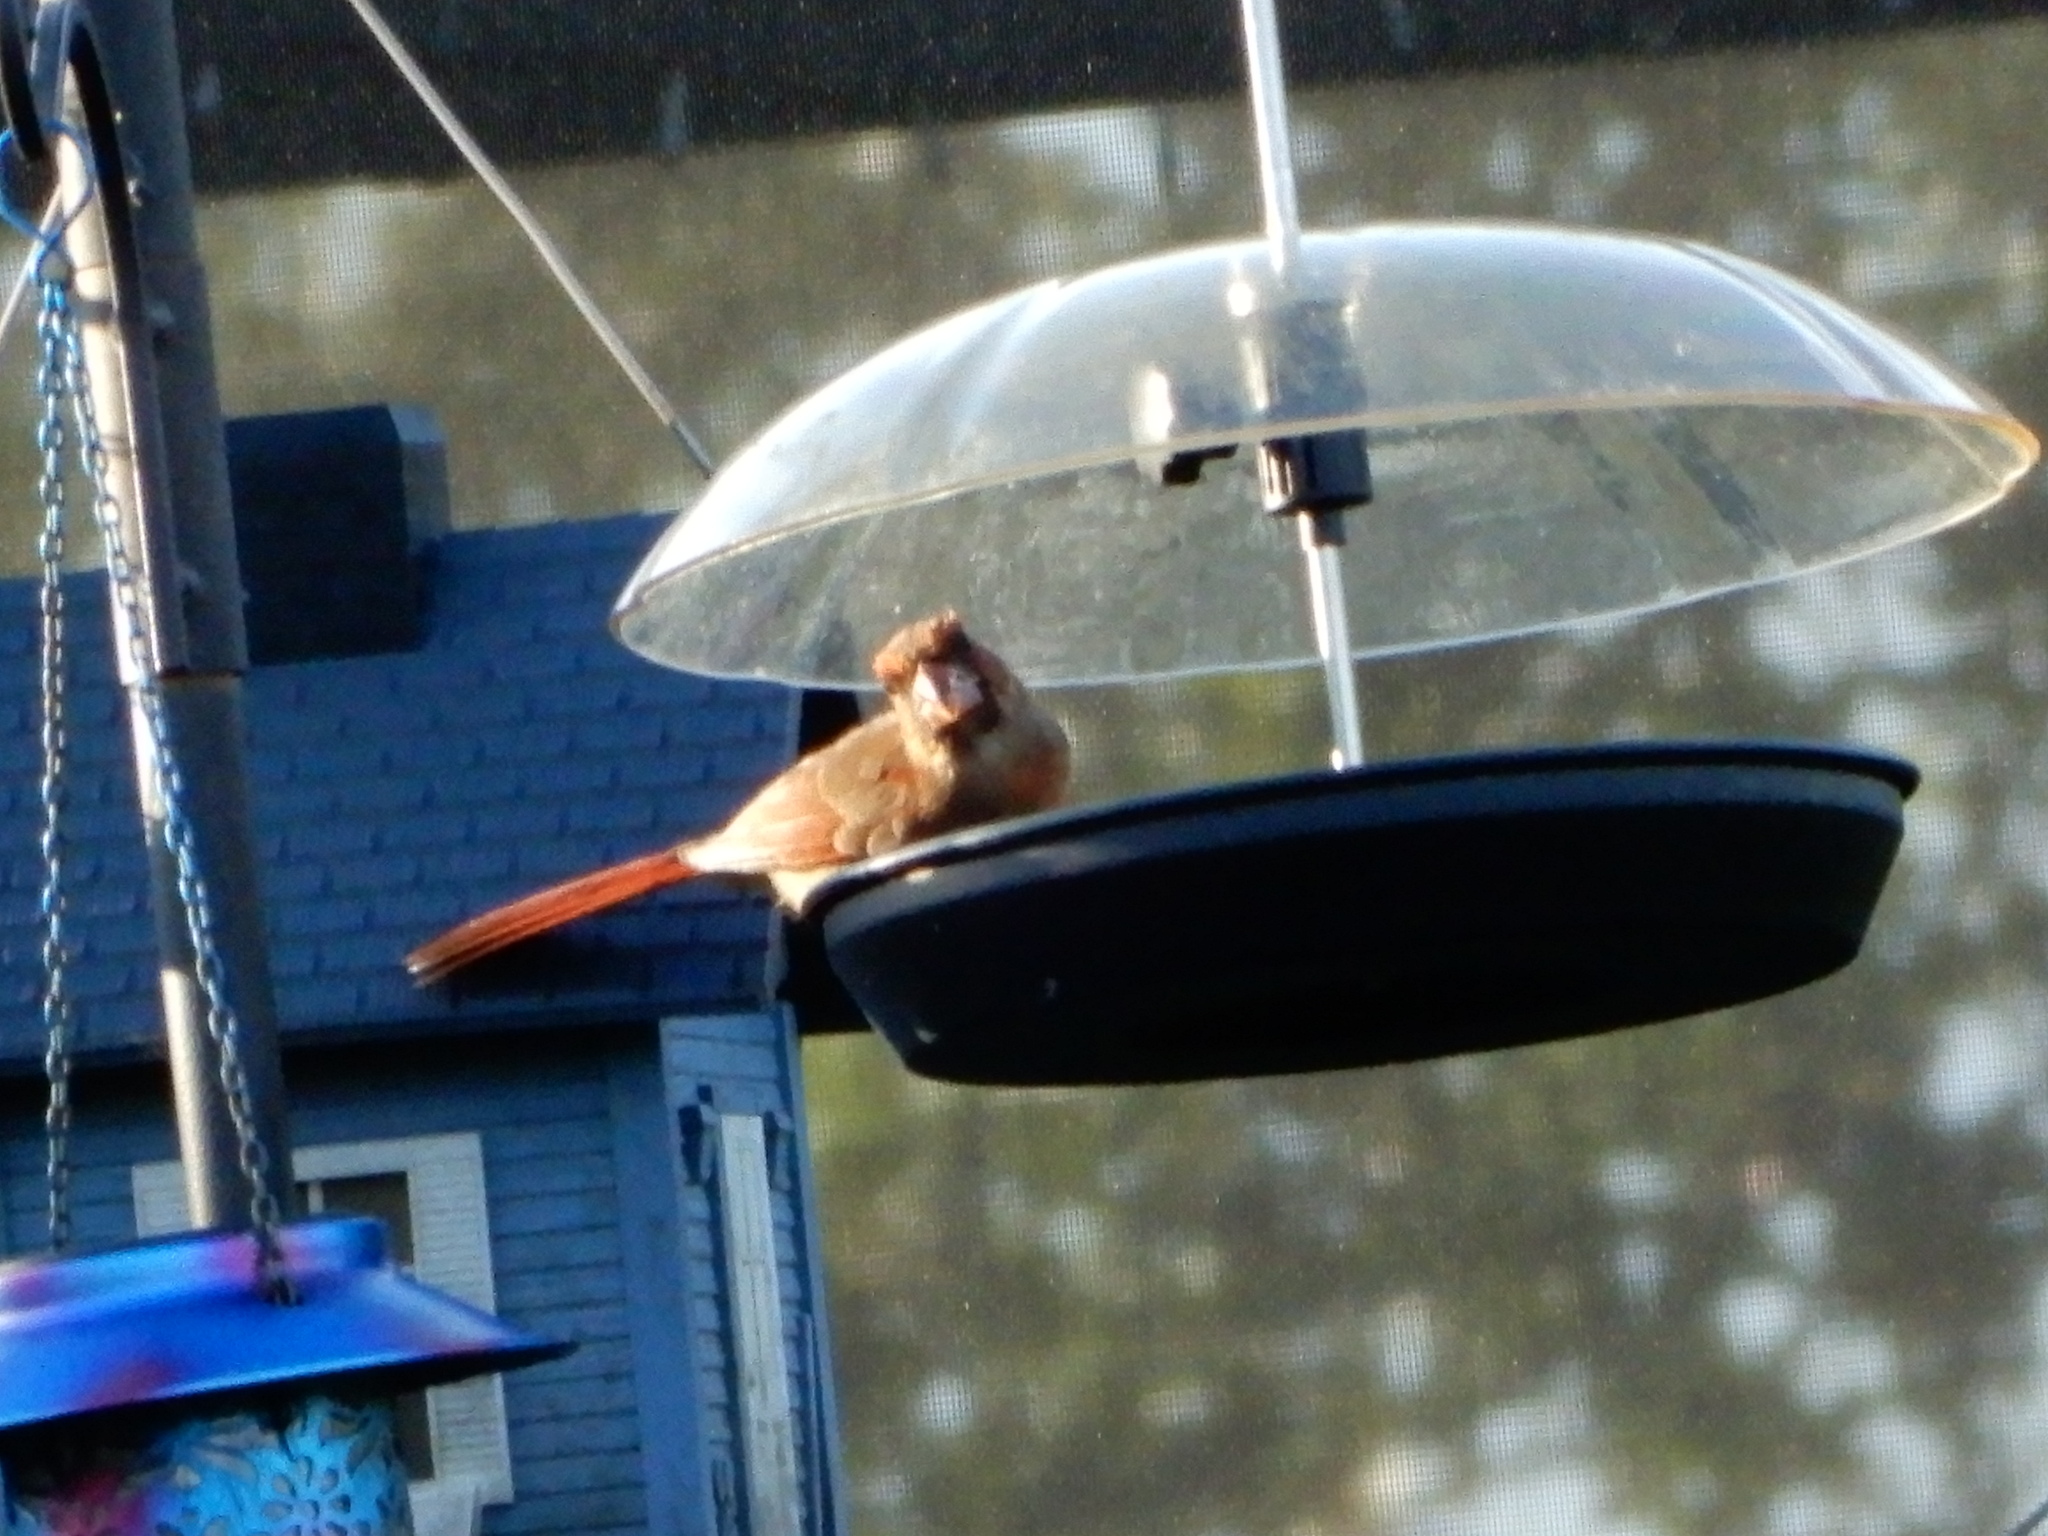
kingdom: Animalia
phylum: Chordata
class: Aves
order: Passeriformes
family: Cardinalidae
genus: Cardinalis
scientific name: Cardinalis cardinalis
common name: Northern cardinal
